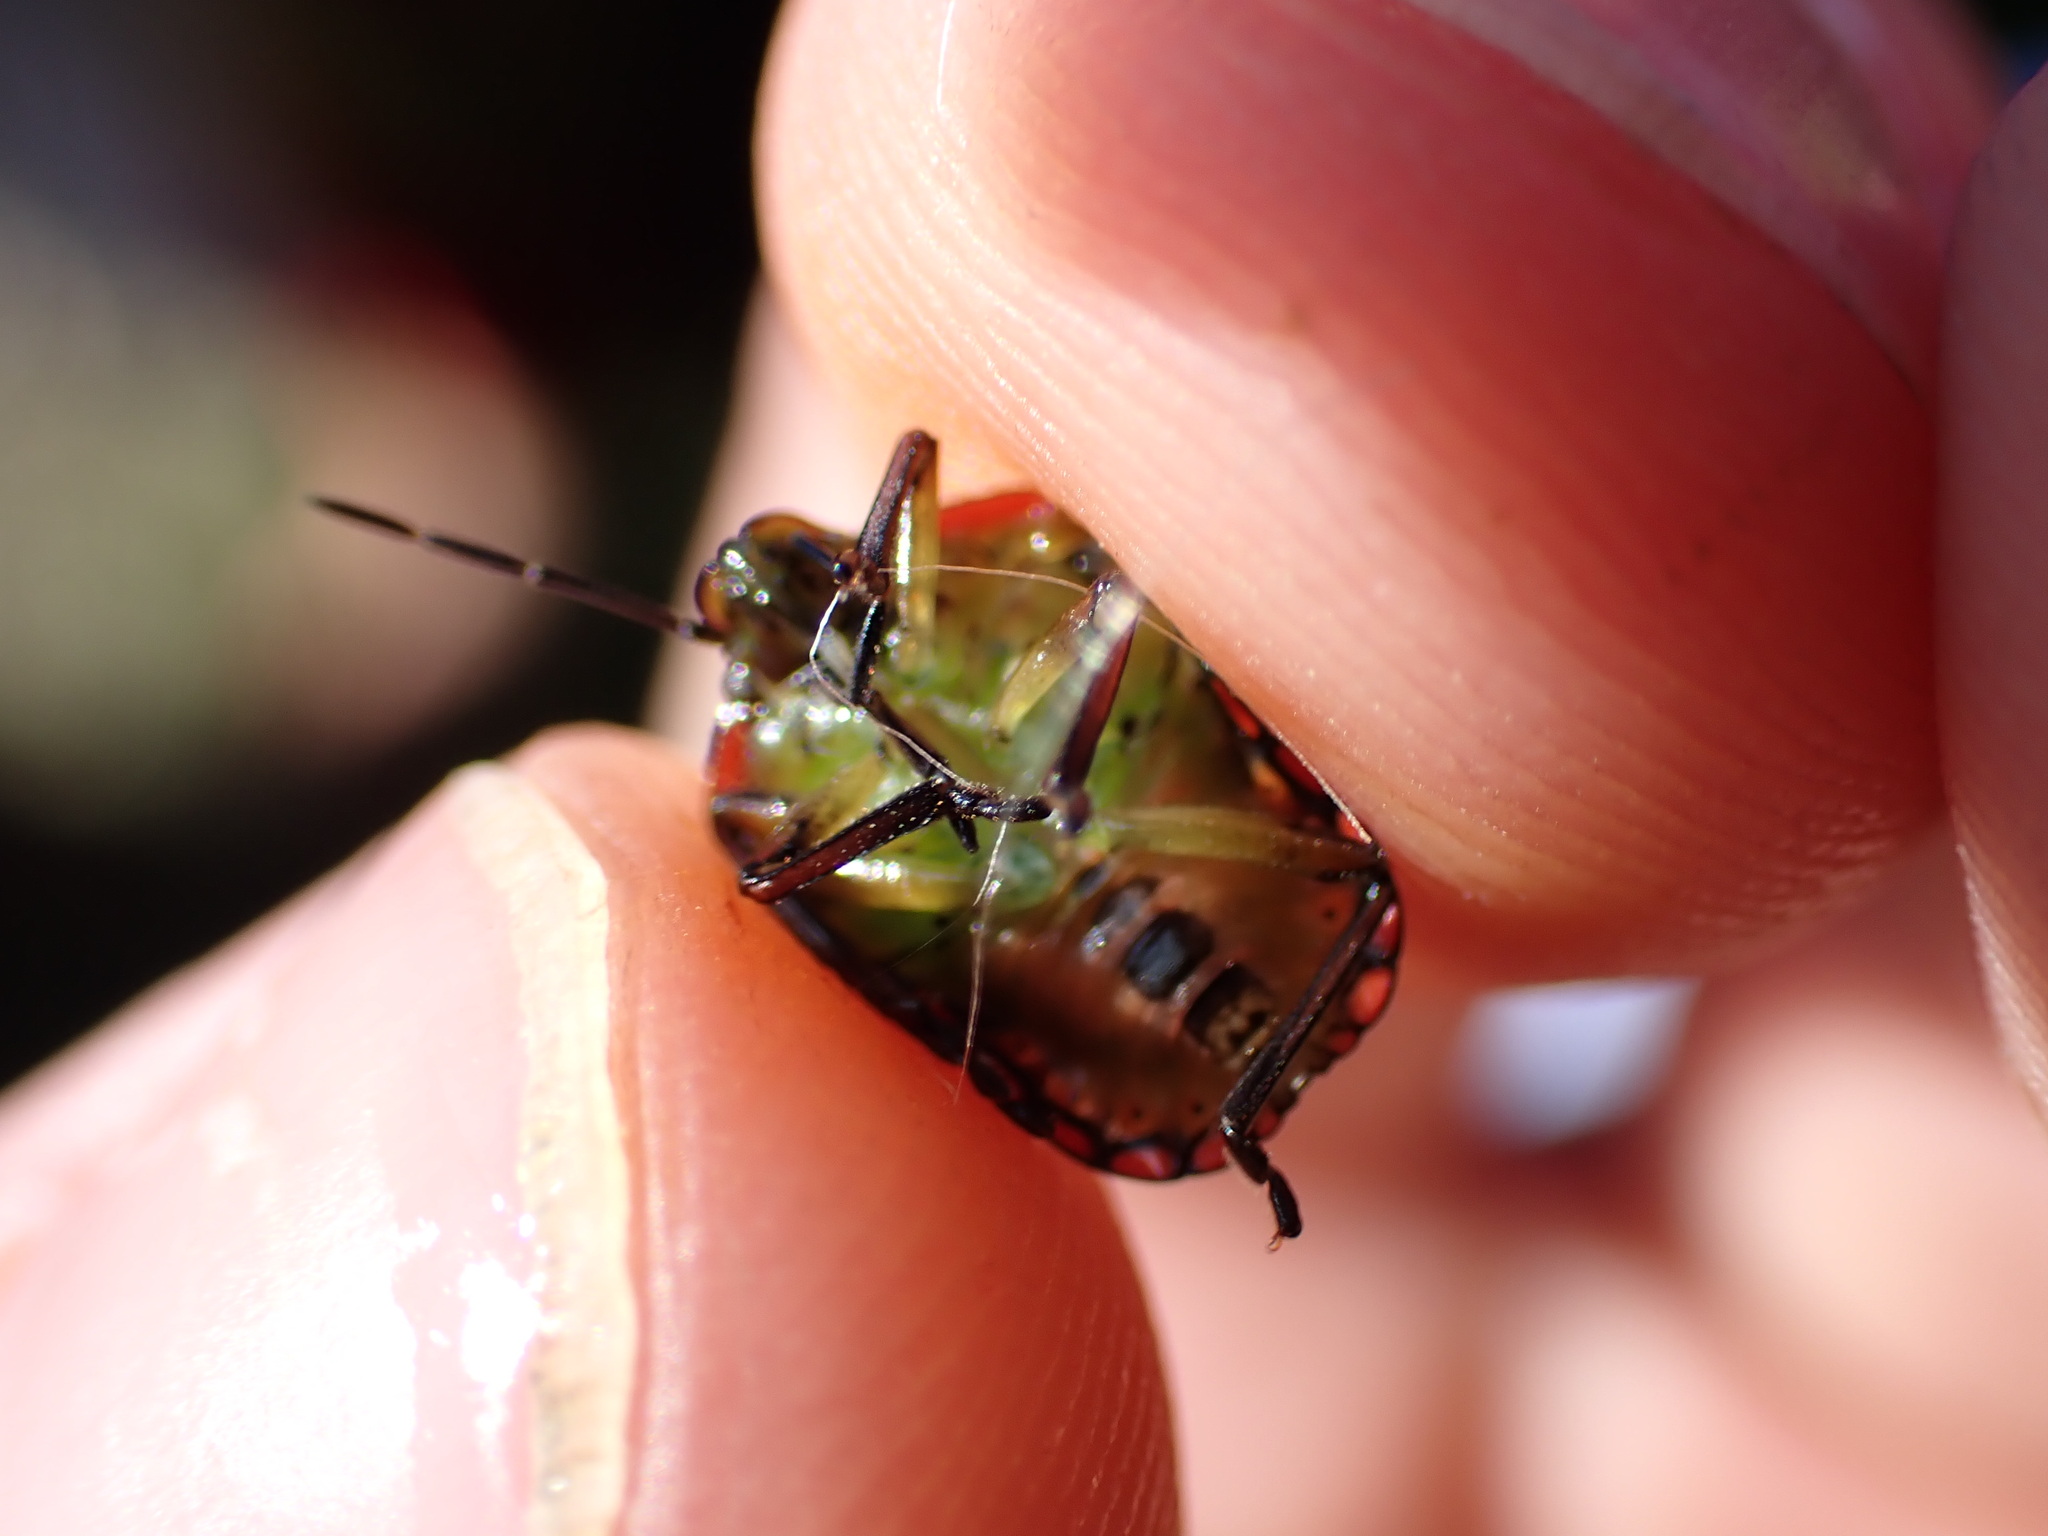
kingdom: Animalia
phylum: Arthropoda
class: Insecta
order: Hemiptera
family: Pentatomidae
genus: Nezara
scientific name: Nezara viridula
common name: Southern green stink bug
